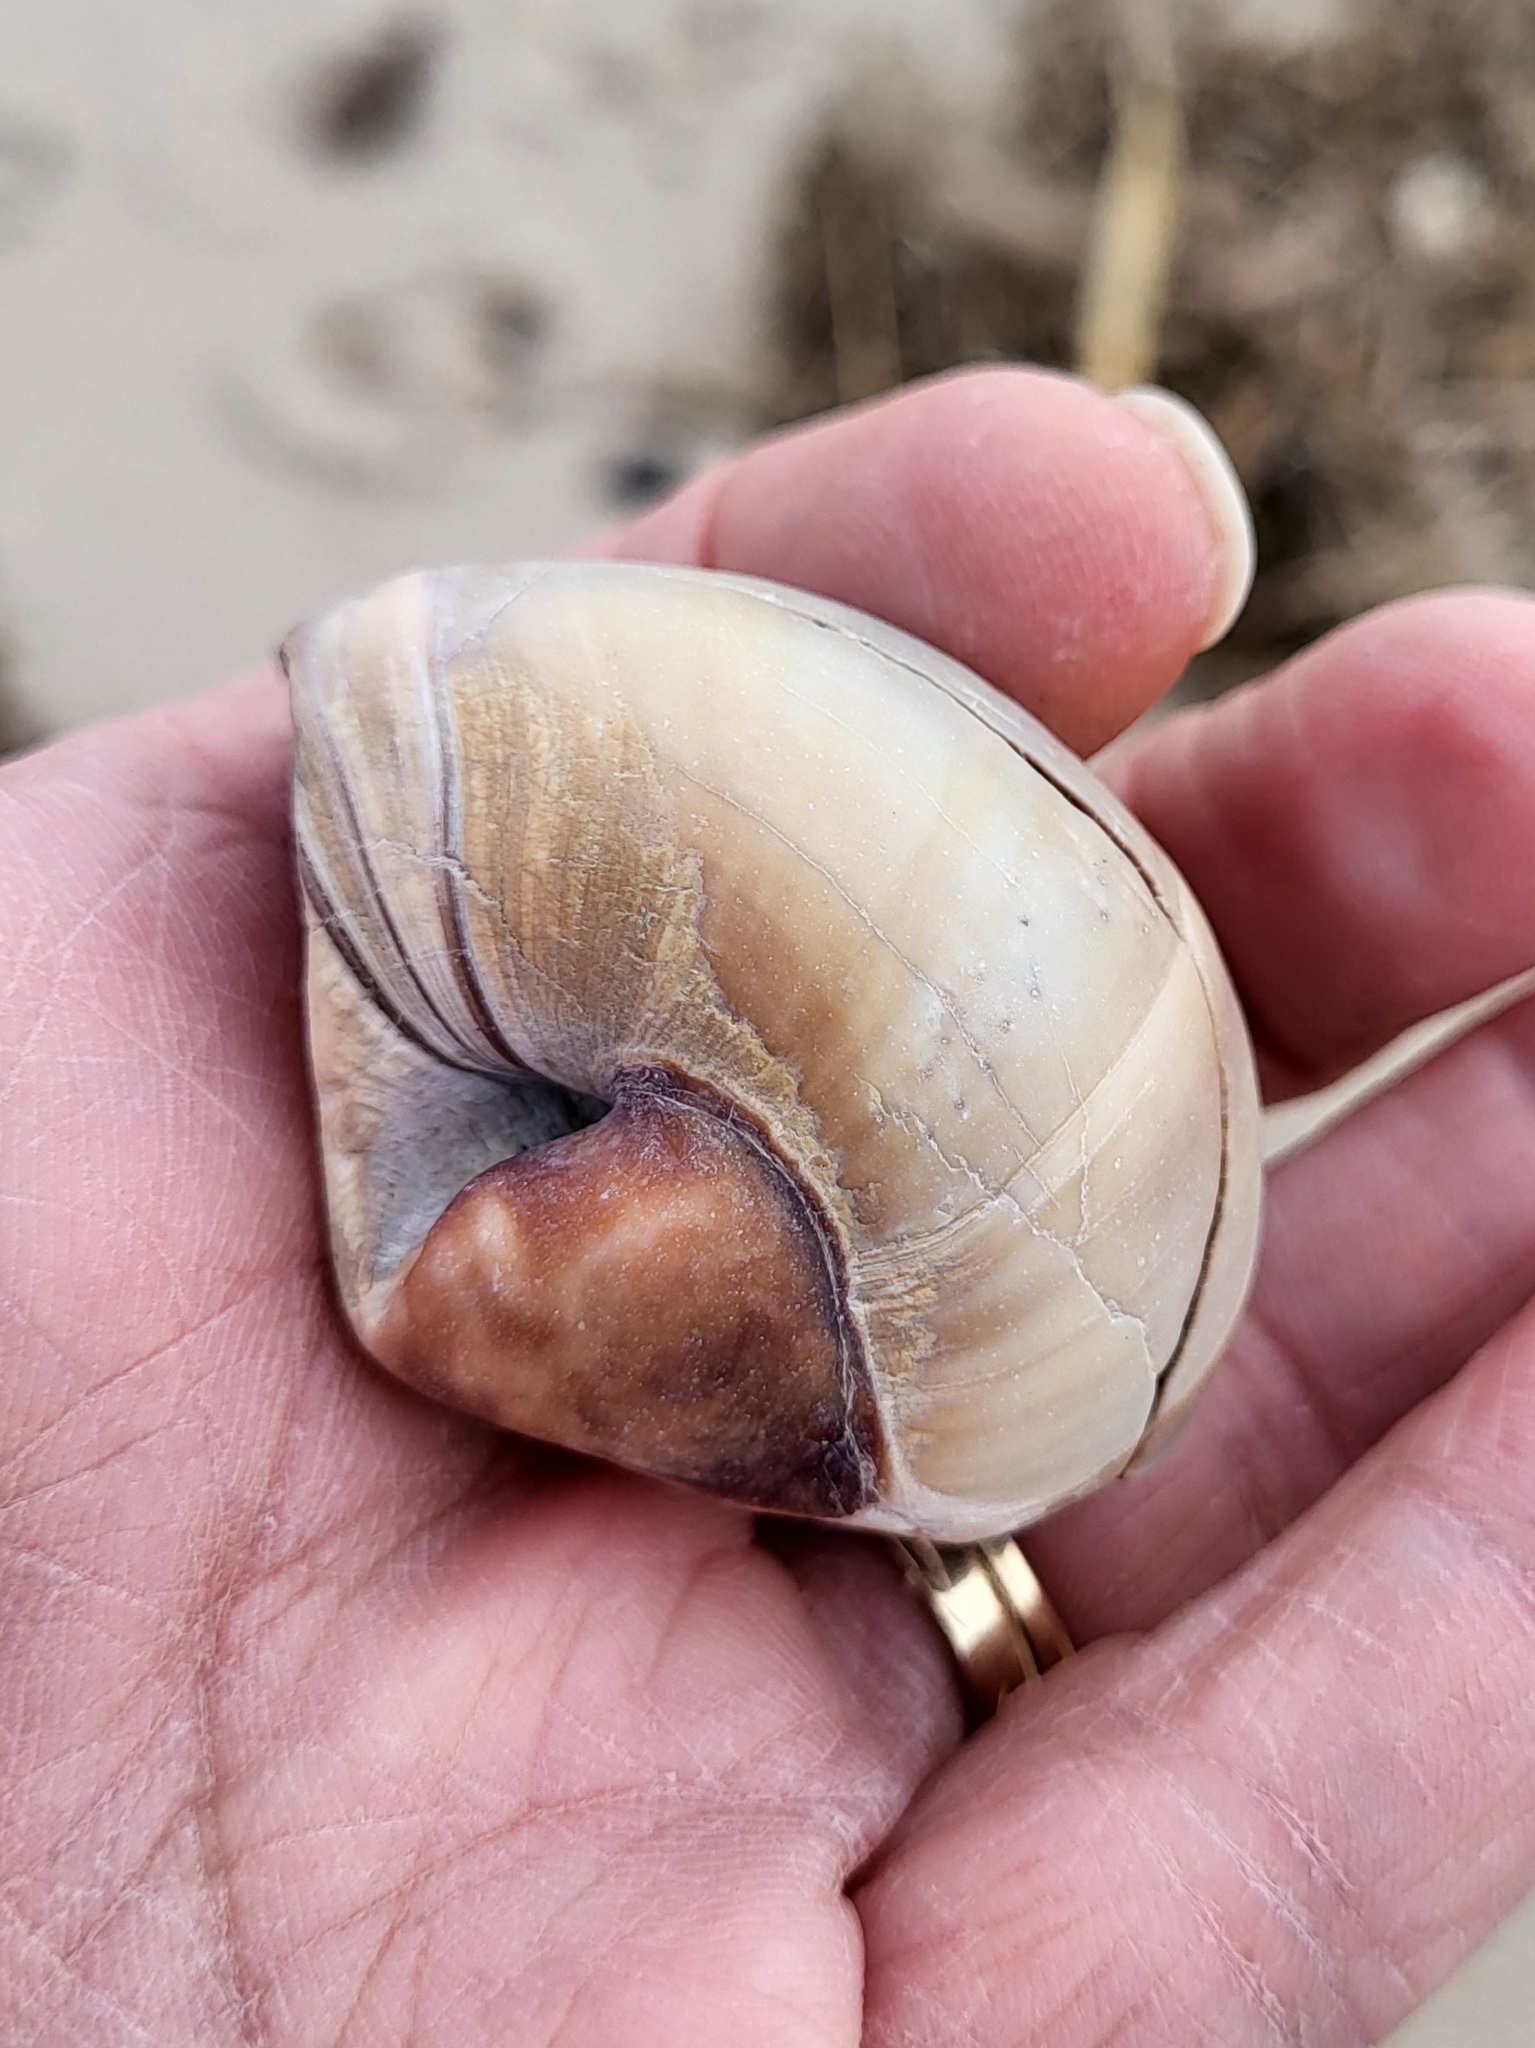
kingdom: Animalia
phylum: Mollusca
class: Gastropoda
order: Littorinimorpha
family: Naticidae
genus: Neverita
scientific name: Neverita duplicata
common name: Lobed moonsnail
